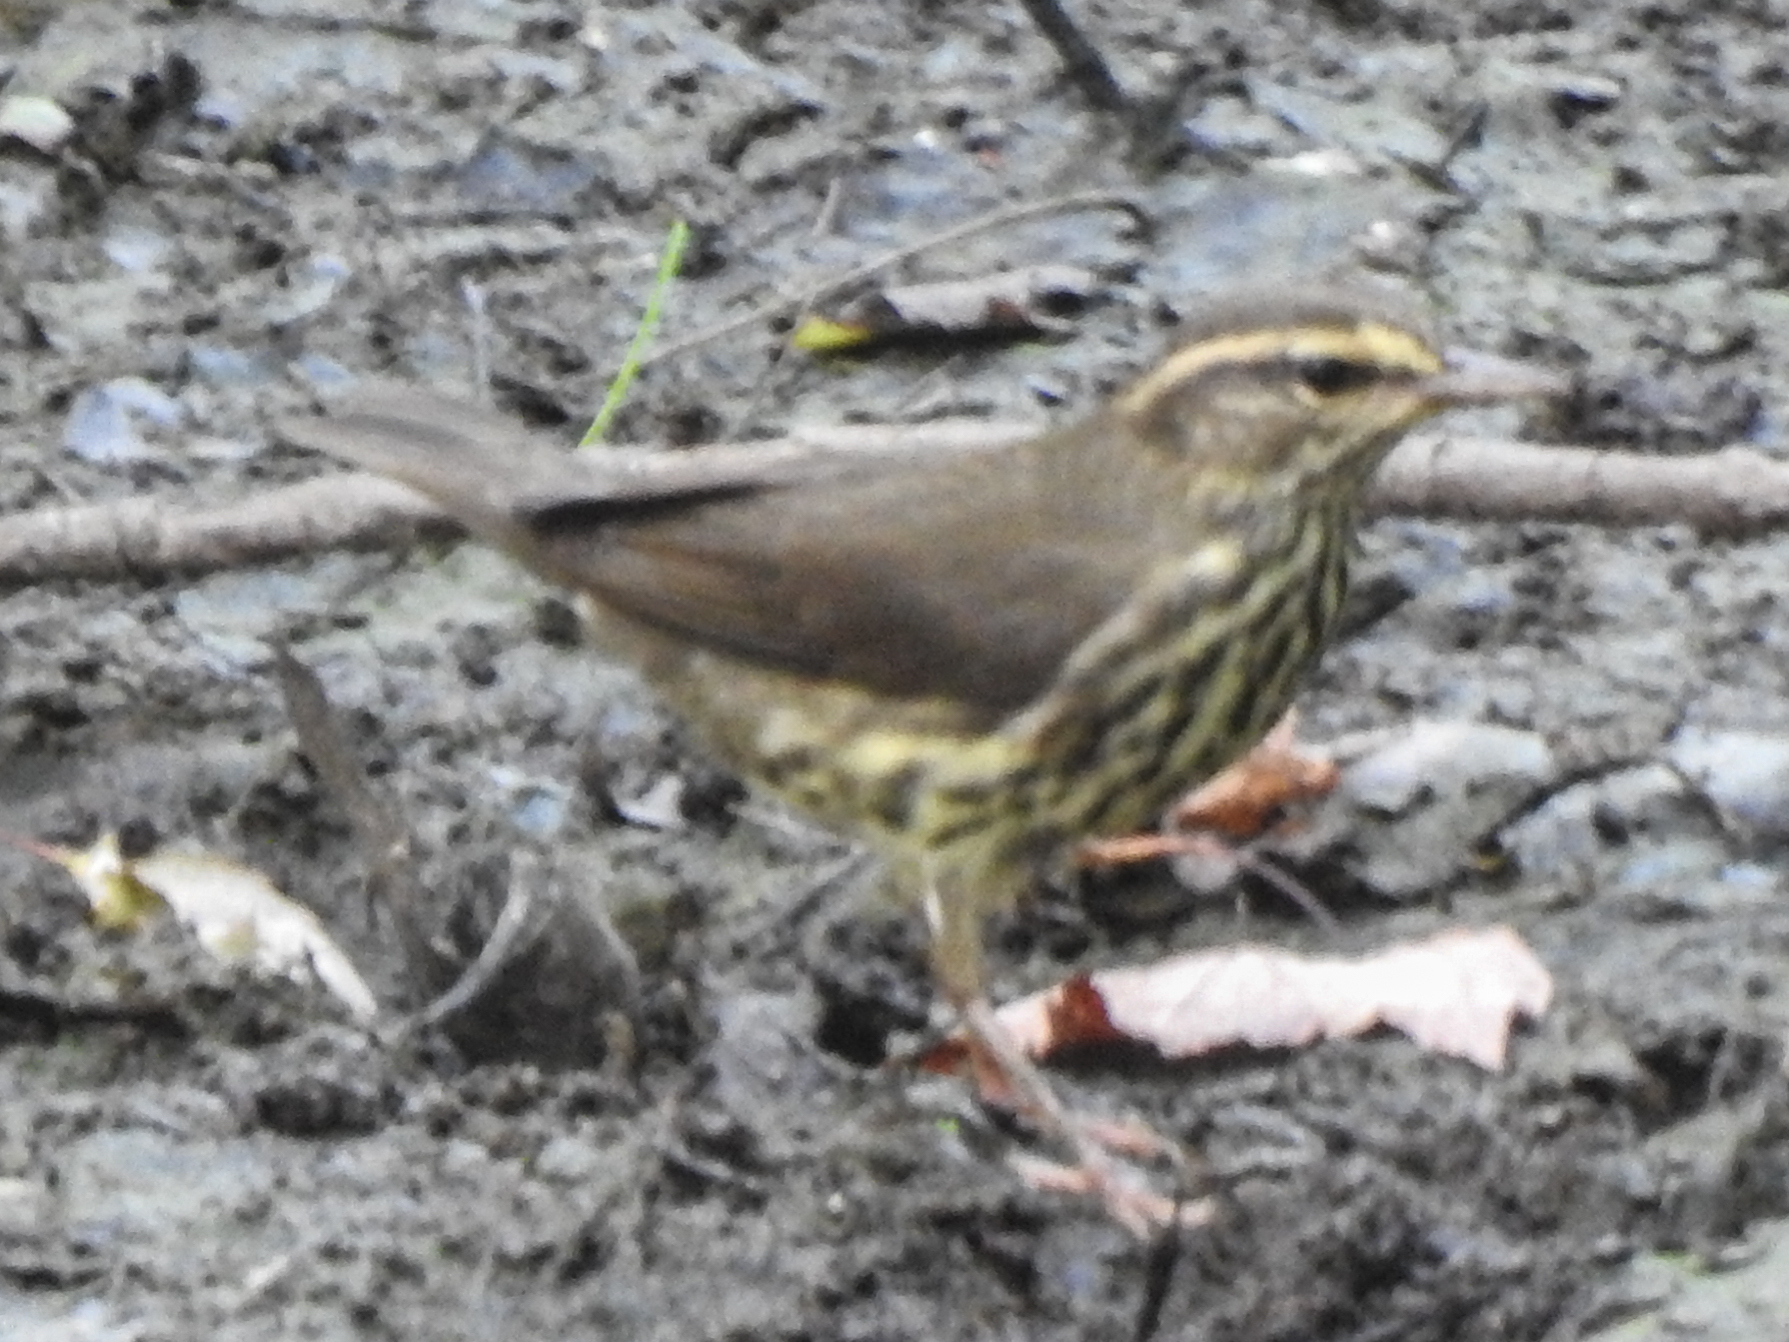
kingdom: Animalia
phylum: Chordata
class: Aves
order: Passeriformes
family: Parulidae
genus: Parkesia
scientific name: Parkesia noveboracensis
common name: Northern waterthrush
